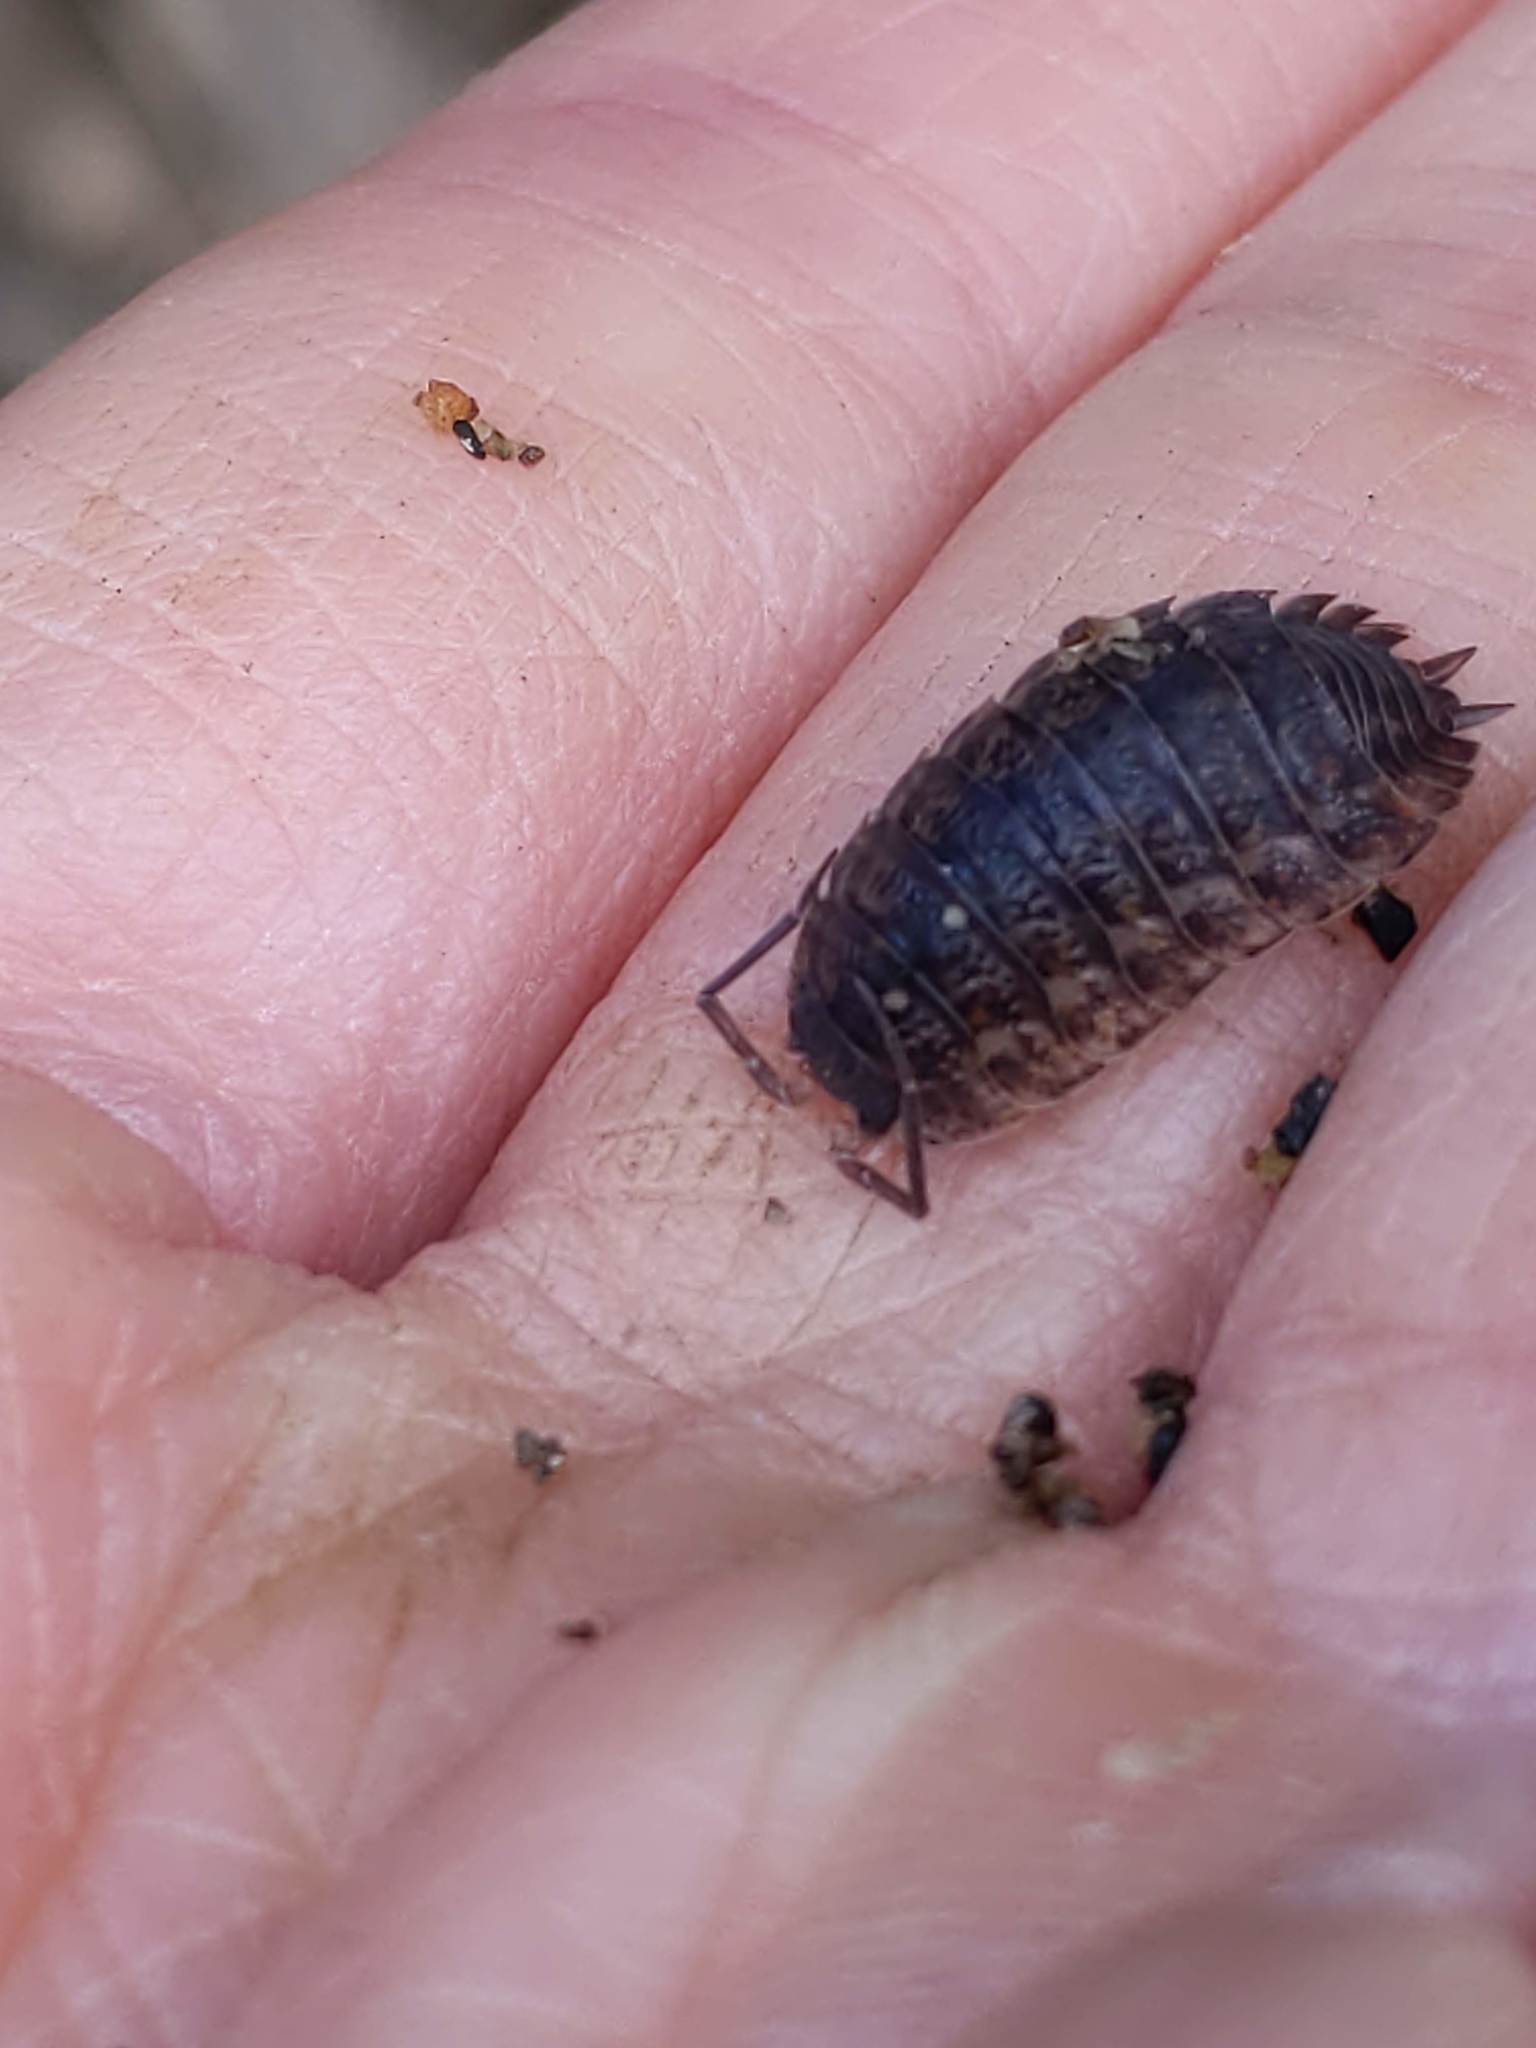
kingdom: Animalia
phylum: Arthropoda
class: Malacostraca
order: Isopoda
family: Trachelipodidae
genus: Trachelipus
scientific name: Trachelipus rathkii
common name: Isopod
